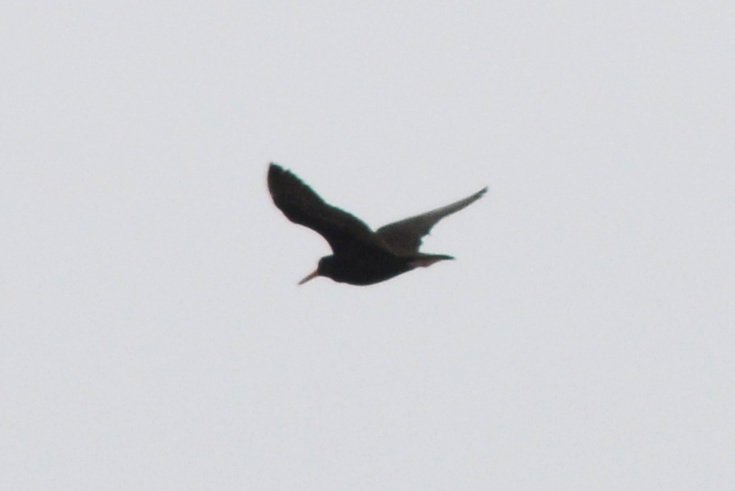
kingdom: Animalia
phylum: Chordata
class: Aves
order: Charadriiformes
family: Haematopodidae
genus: Haematopus
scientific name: Haematopus fuliginosus
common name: Sooty oystercatcher
